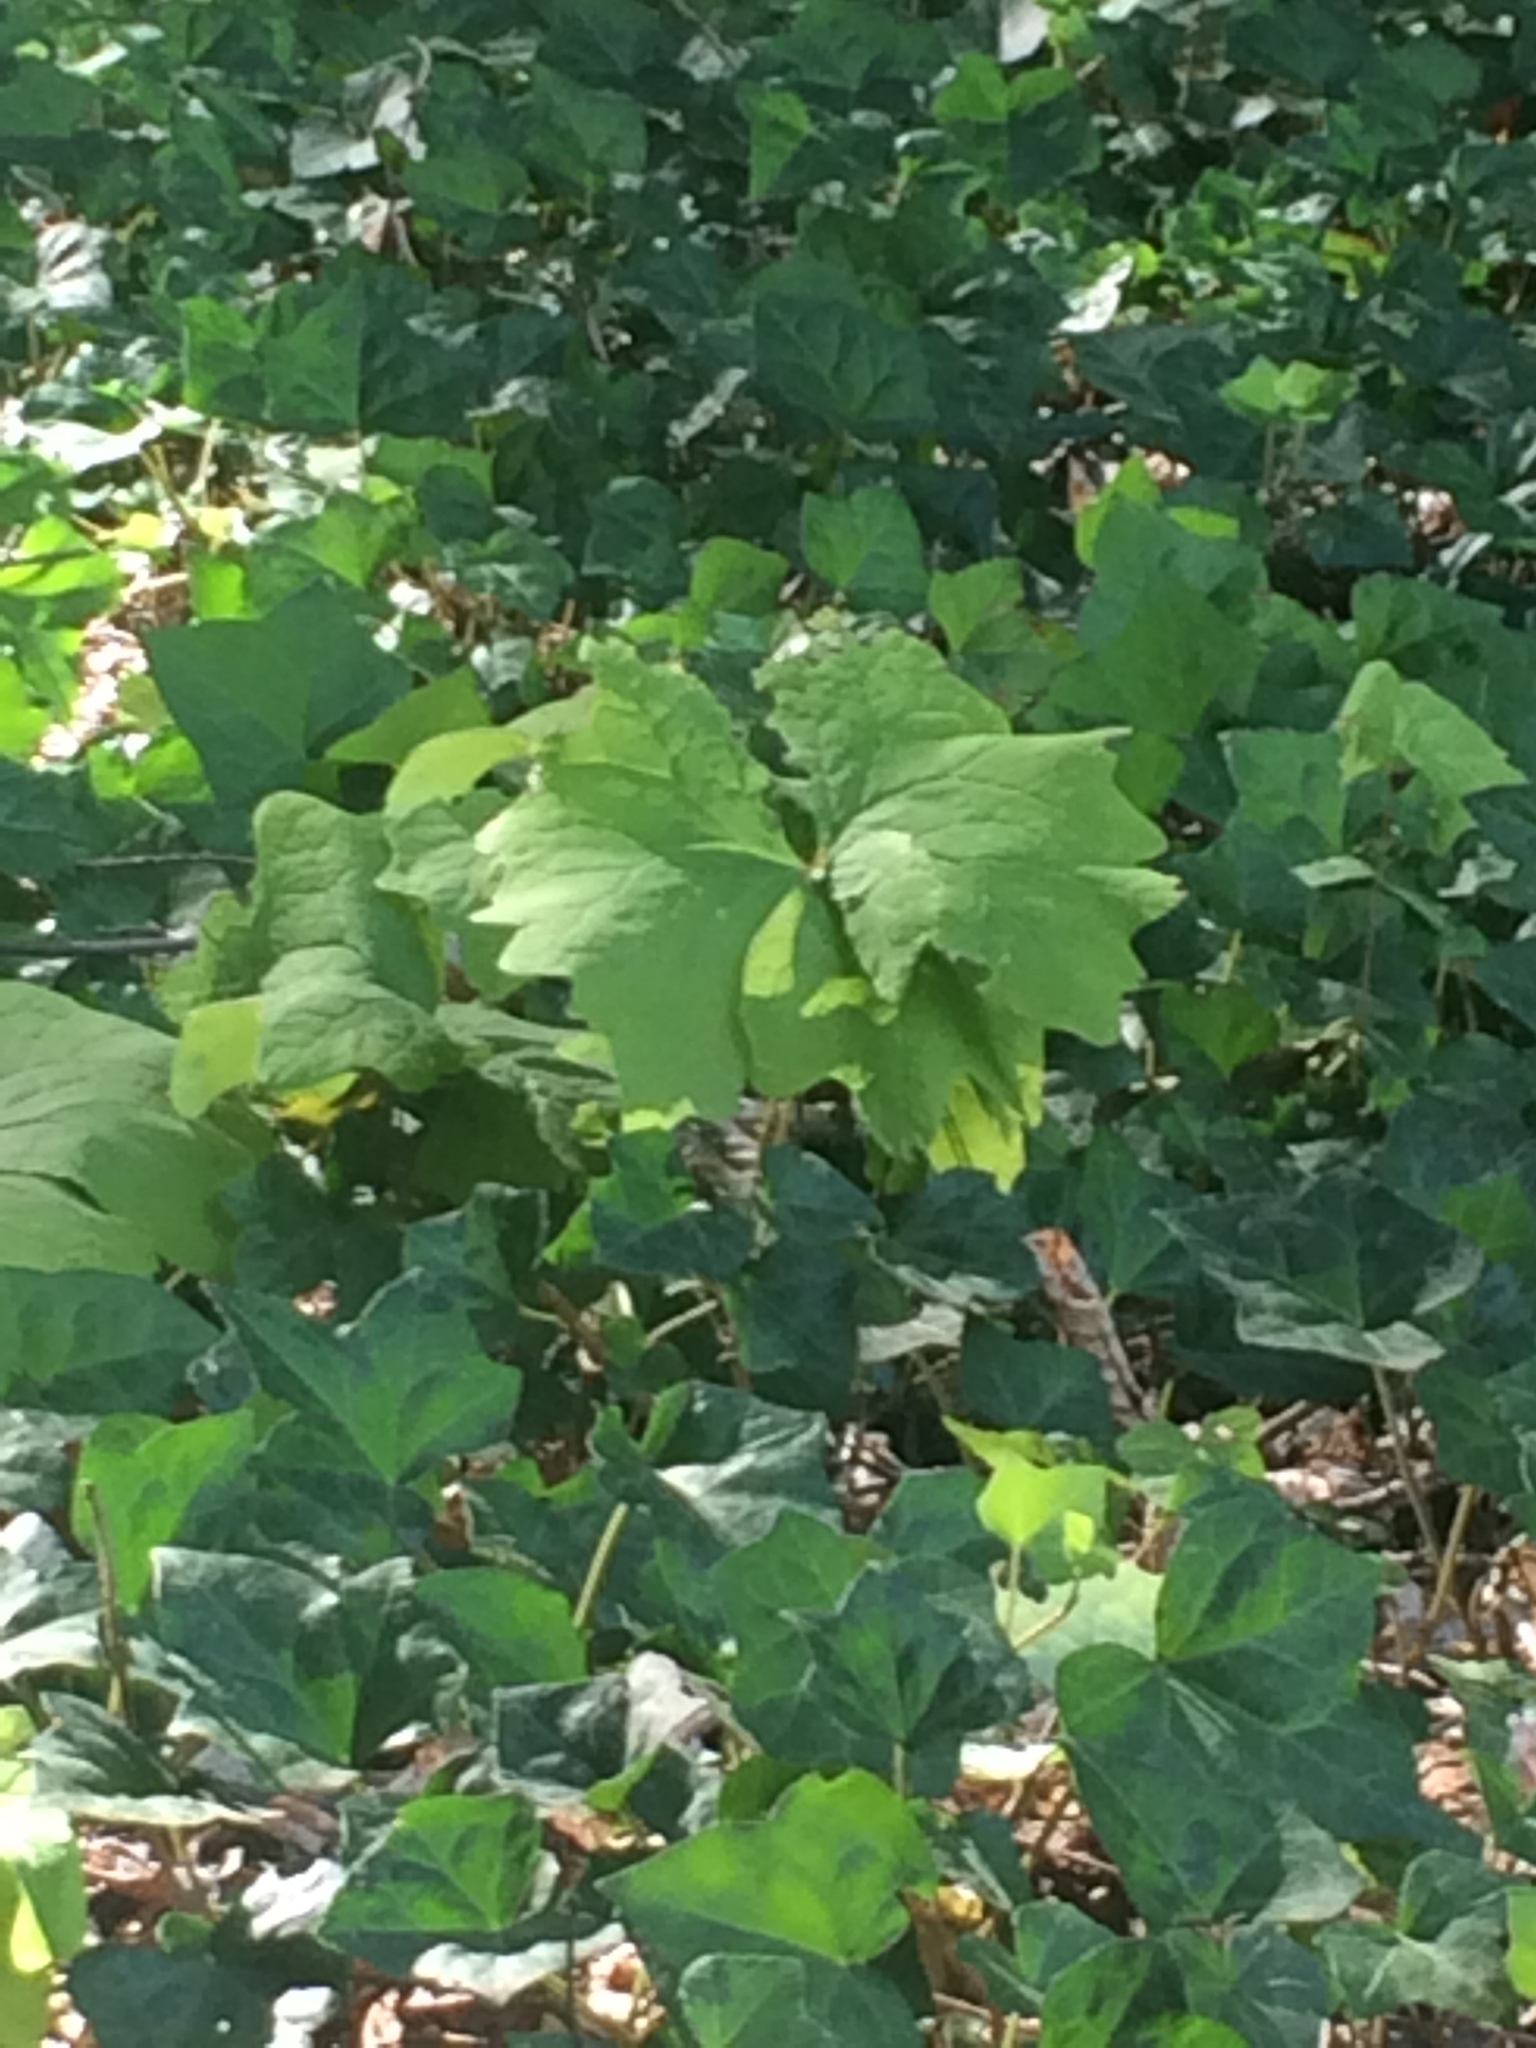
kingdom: Plantae
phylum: Tracheophyta
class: Magnoliopsida
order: Ranunculales
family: Berberidaceae
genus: Achlys
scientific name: Achlys triphylla
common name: Vanilla-leaf
